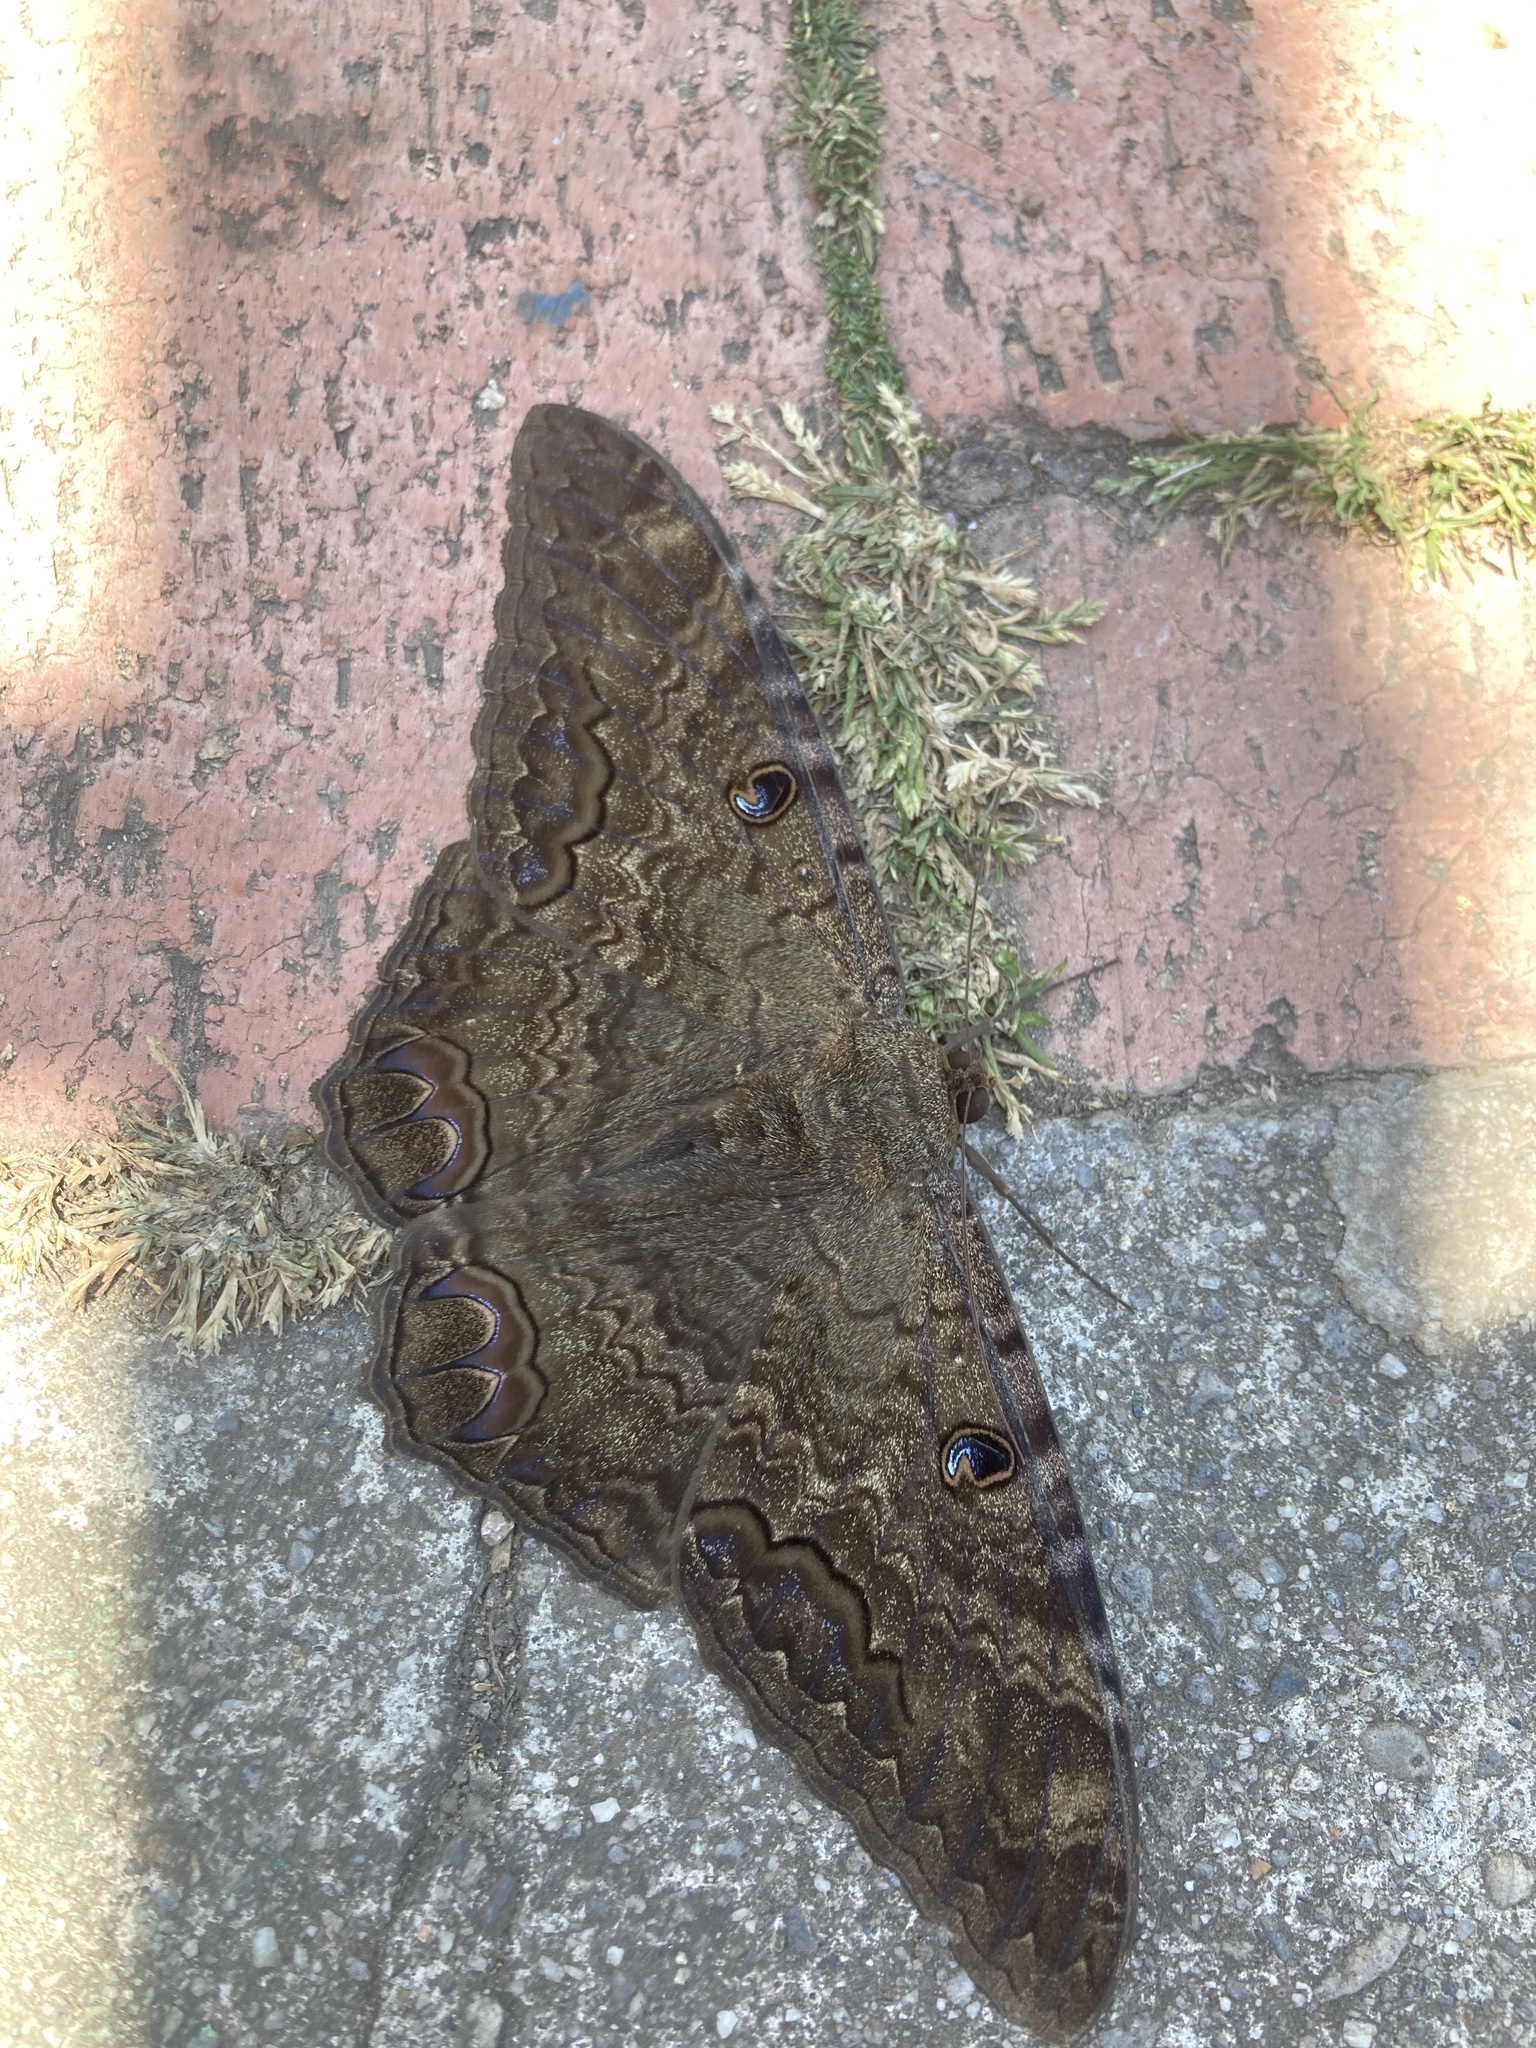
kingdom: Animalia
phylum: Arthropoda
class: Insecta
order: Lepidoptera
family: Erebidae
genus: Ascalapha
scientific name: Ascalapha odorata
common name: Black witch
